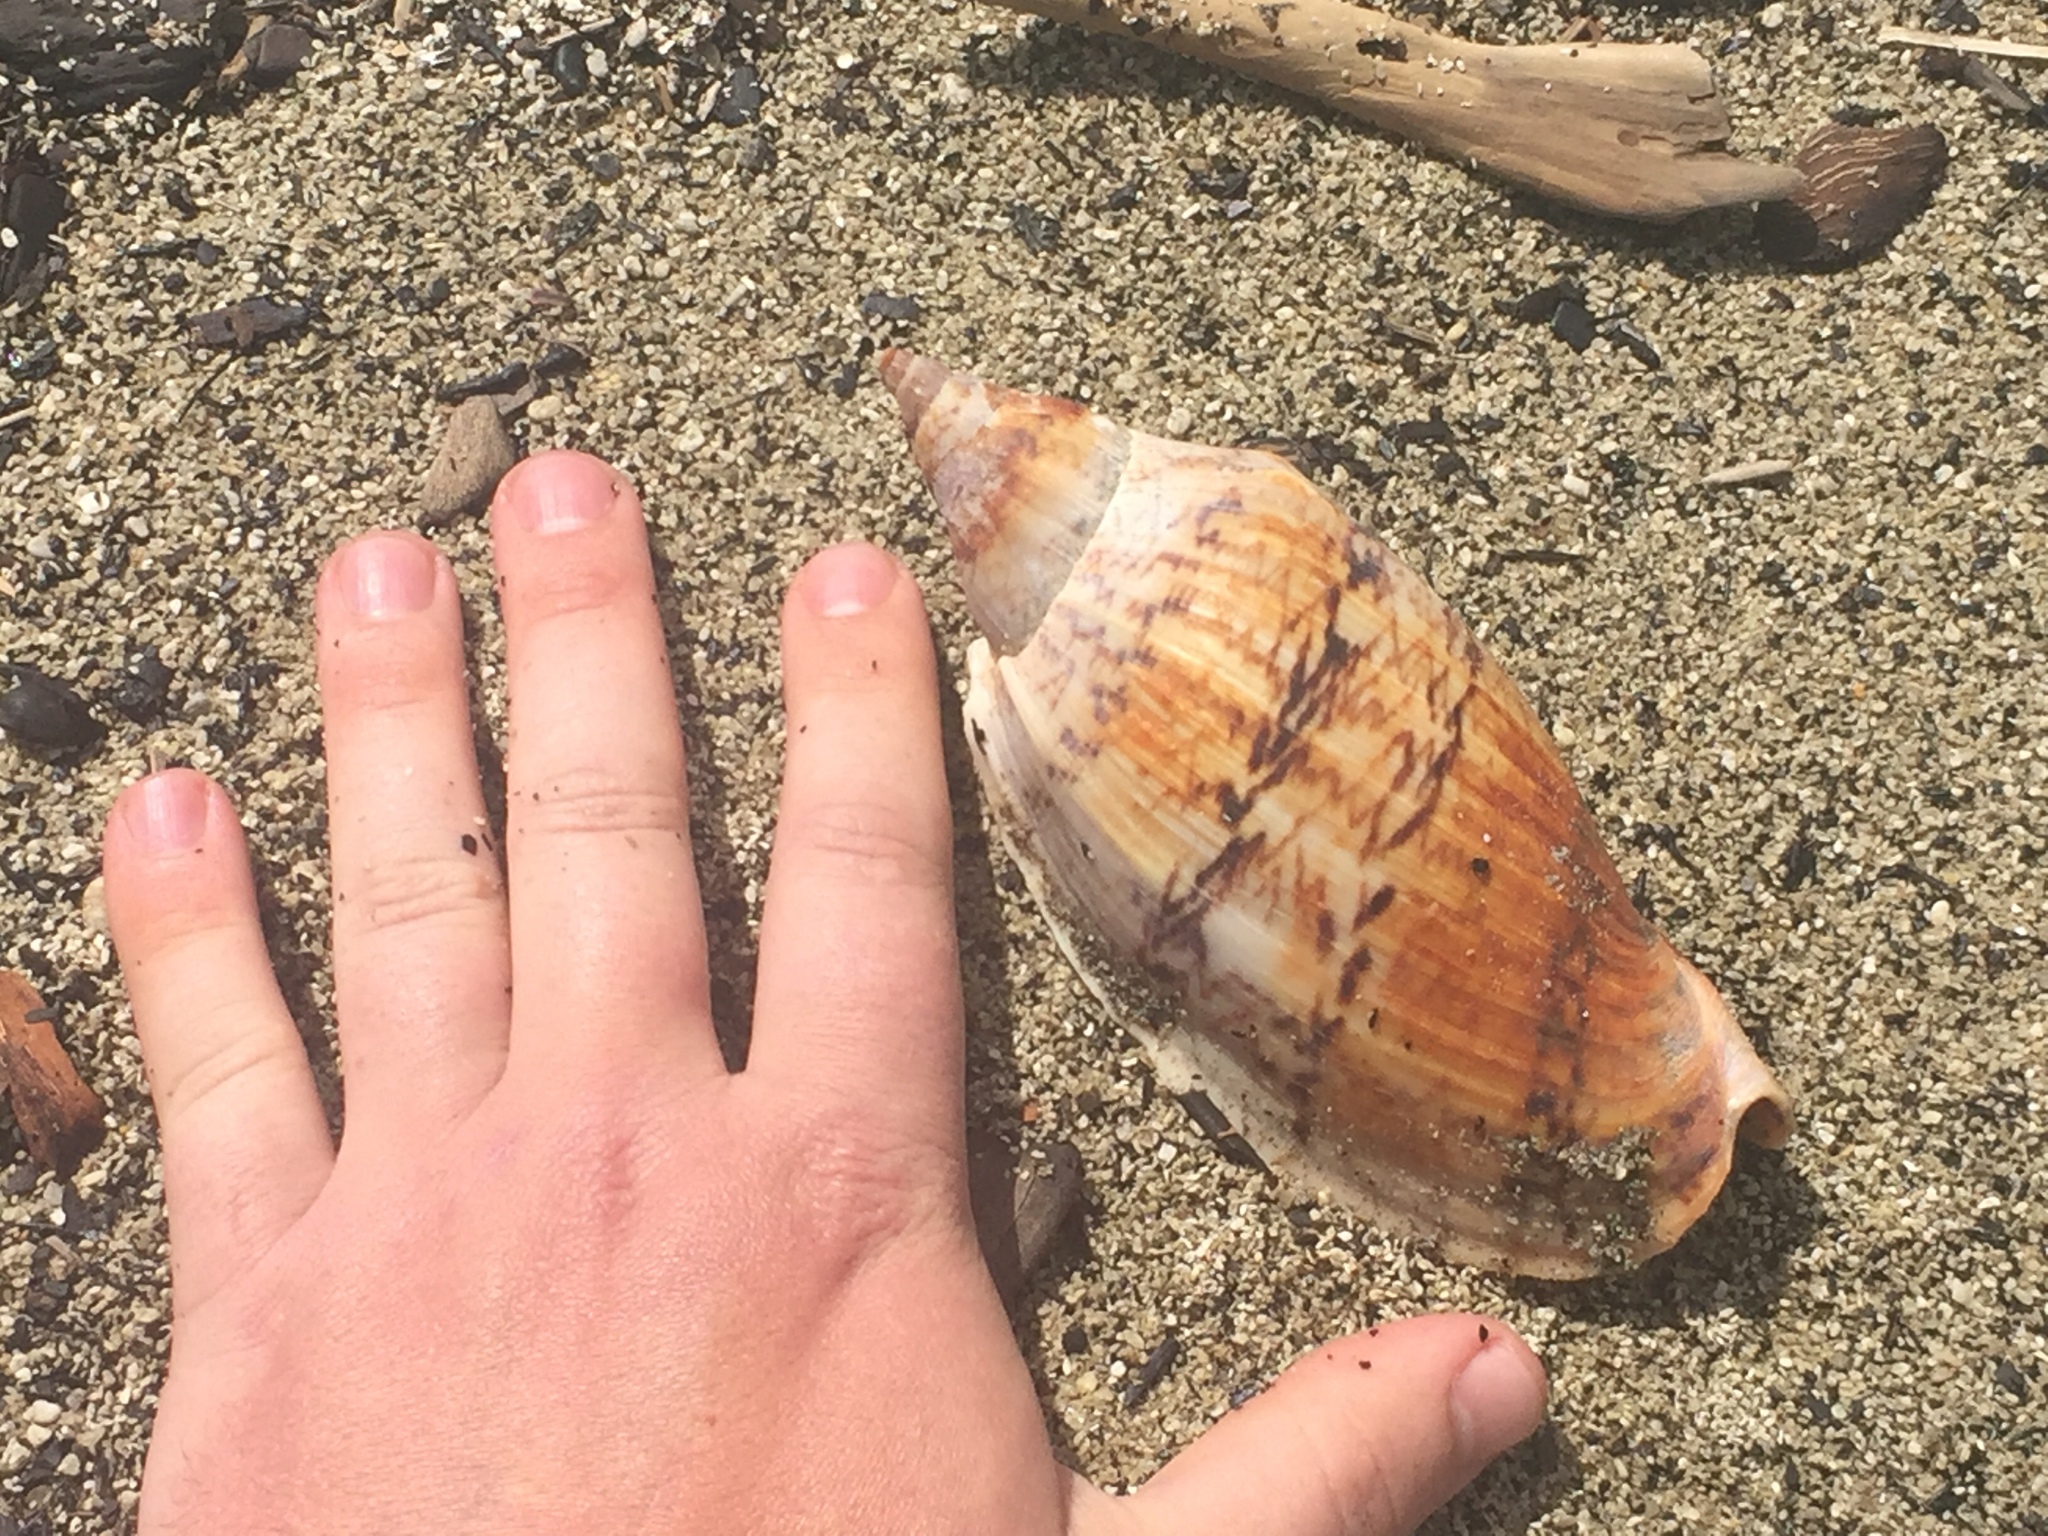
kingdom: Animalia
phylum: Mollusca
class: Gastropoda
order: Neogastropoda
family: Volutidae
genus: Alcithoe
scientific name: Alcithoe arabica
